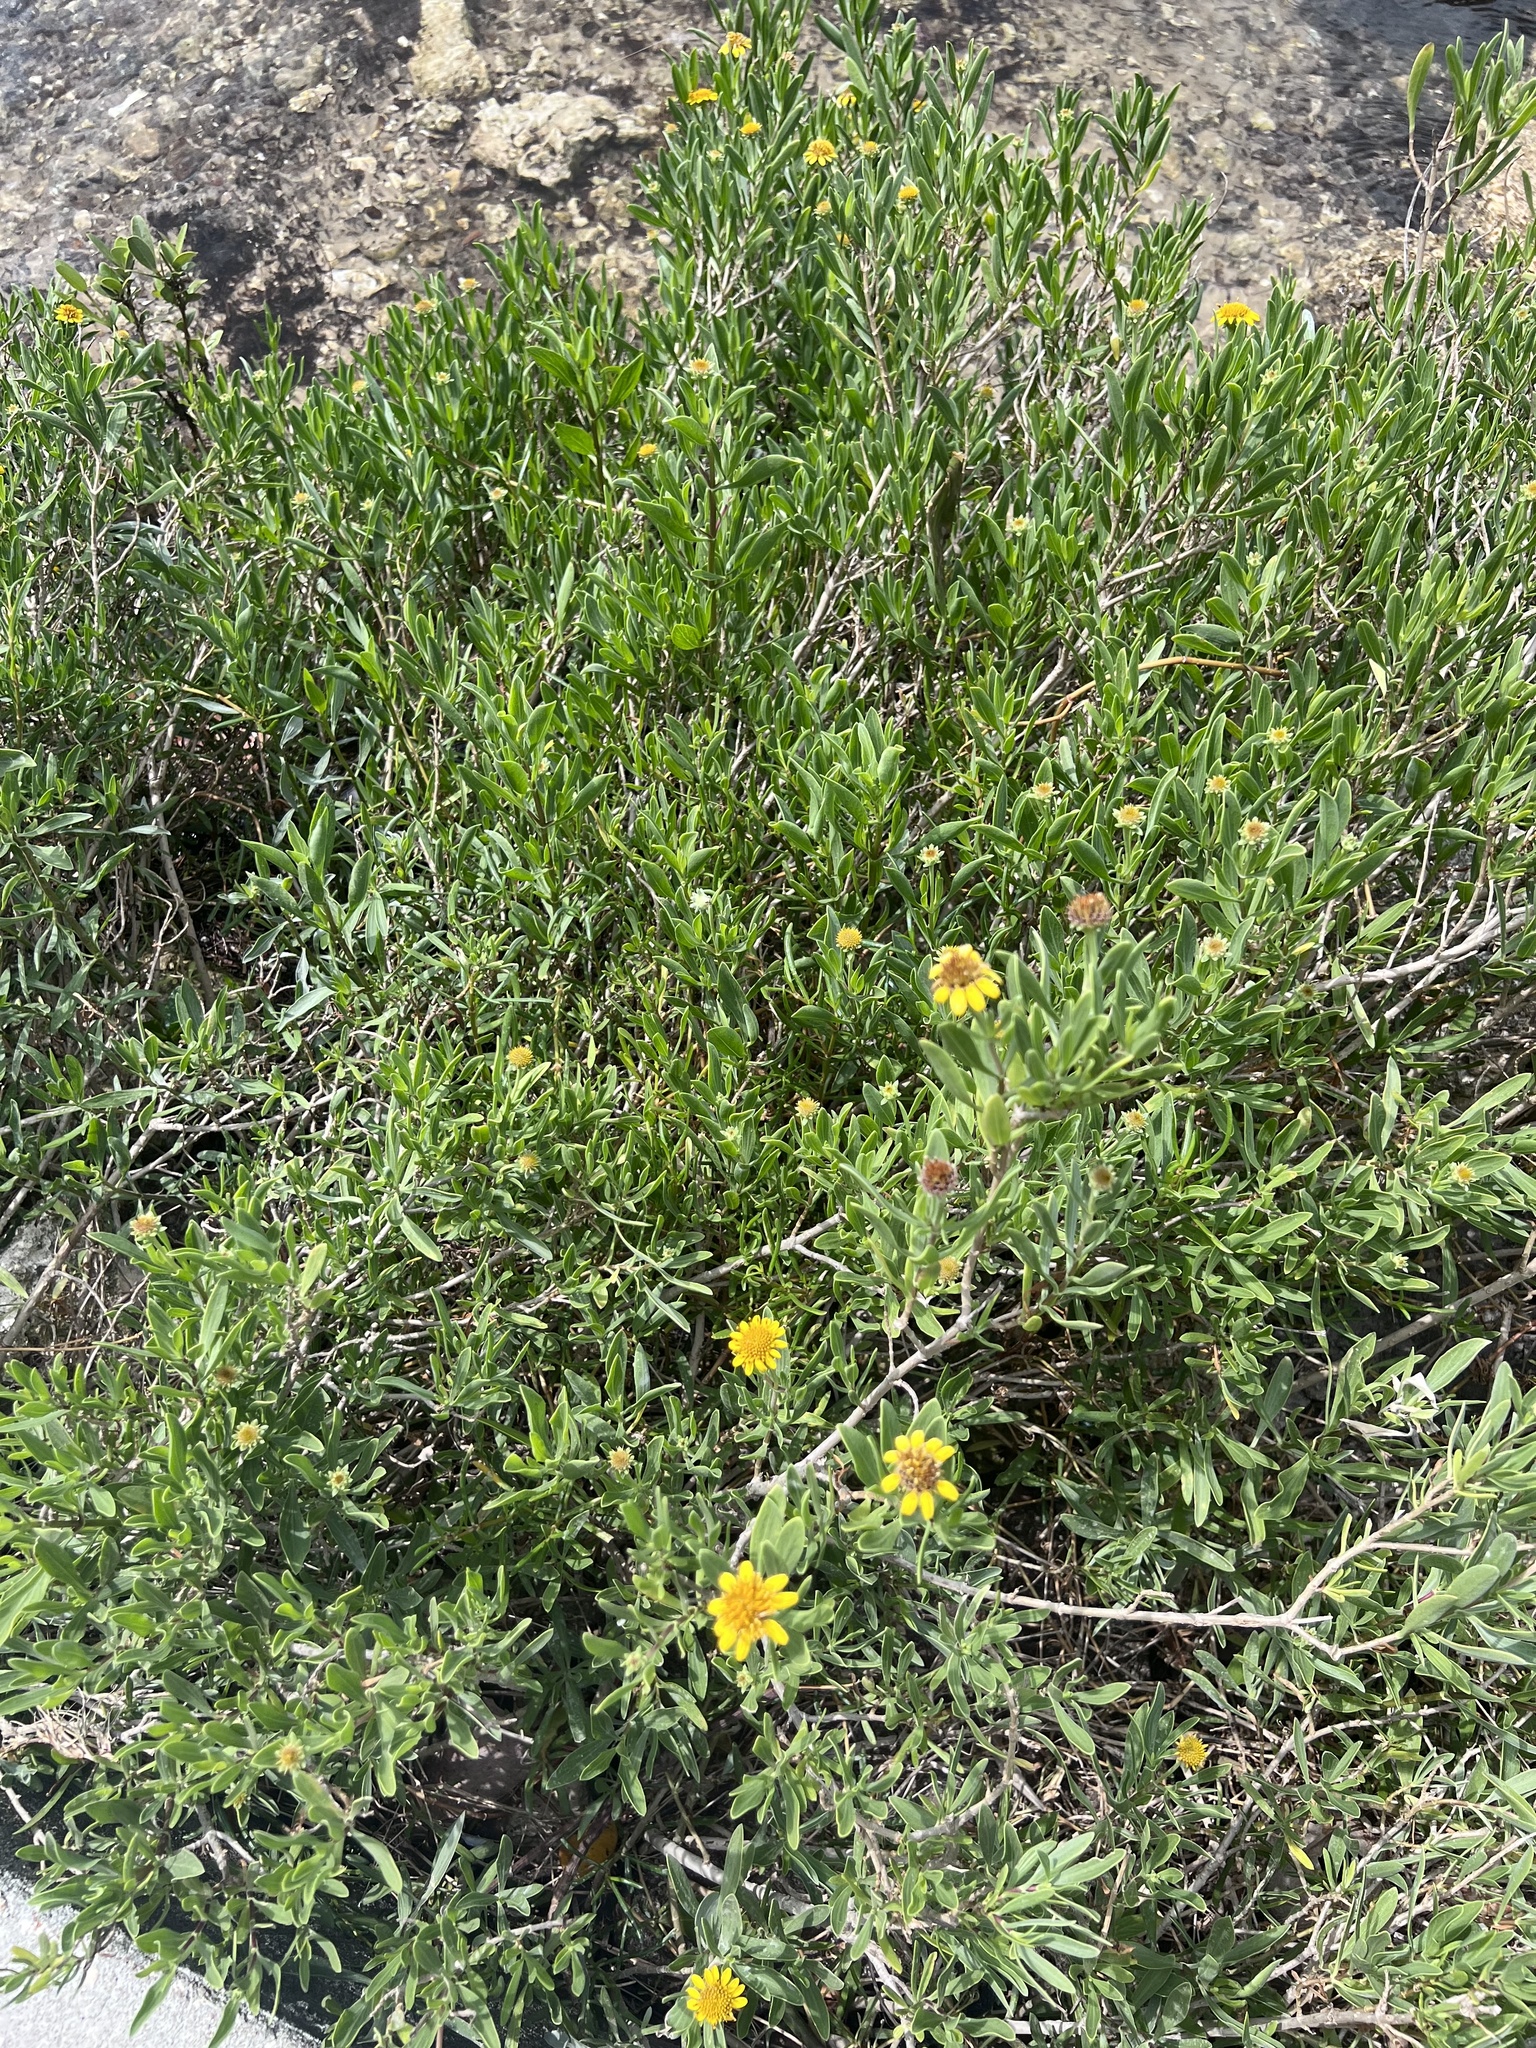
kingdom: Plantae
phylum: Tracheophyta
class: Magnoliopsida
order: Asterales
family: Asteraceae
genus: Borrichia
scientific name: Borrichia frutescens
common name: Sea oxeye
